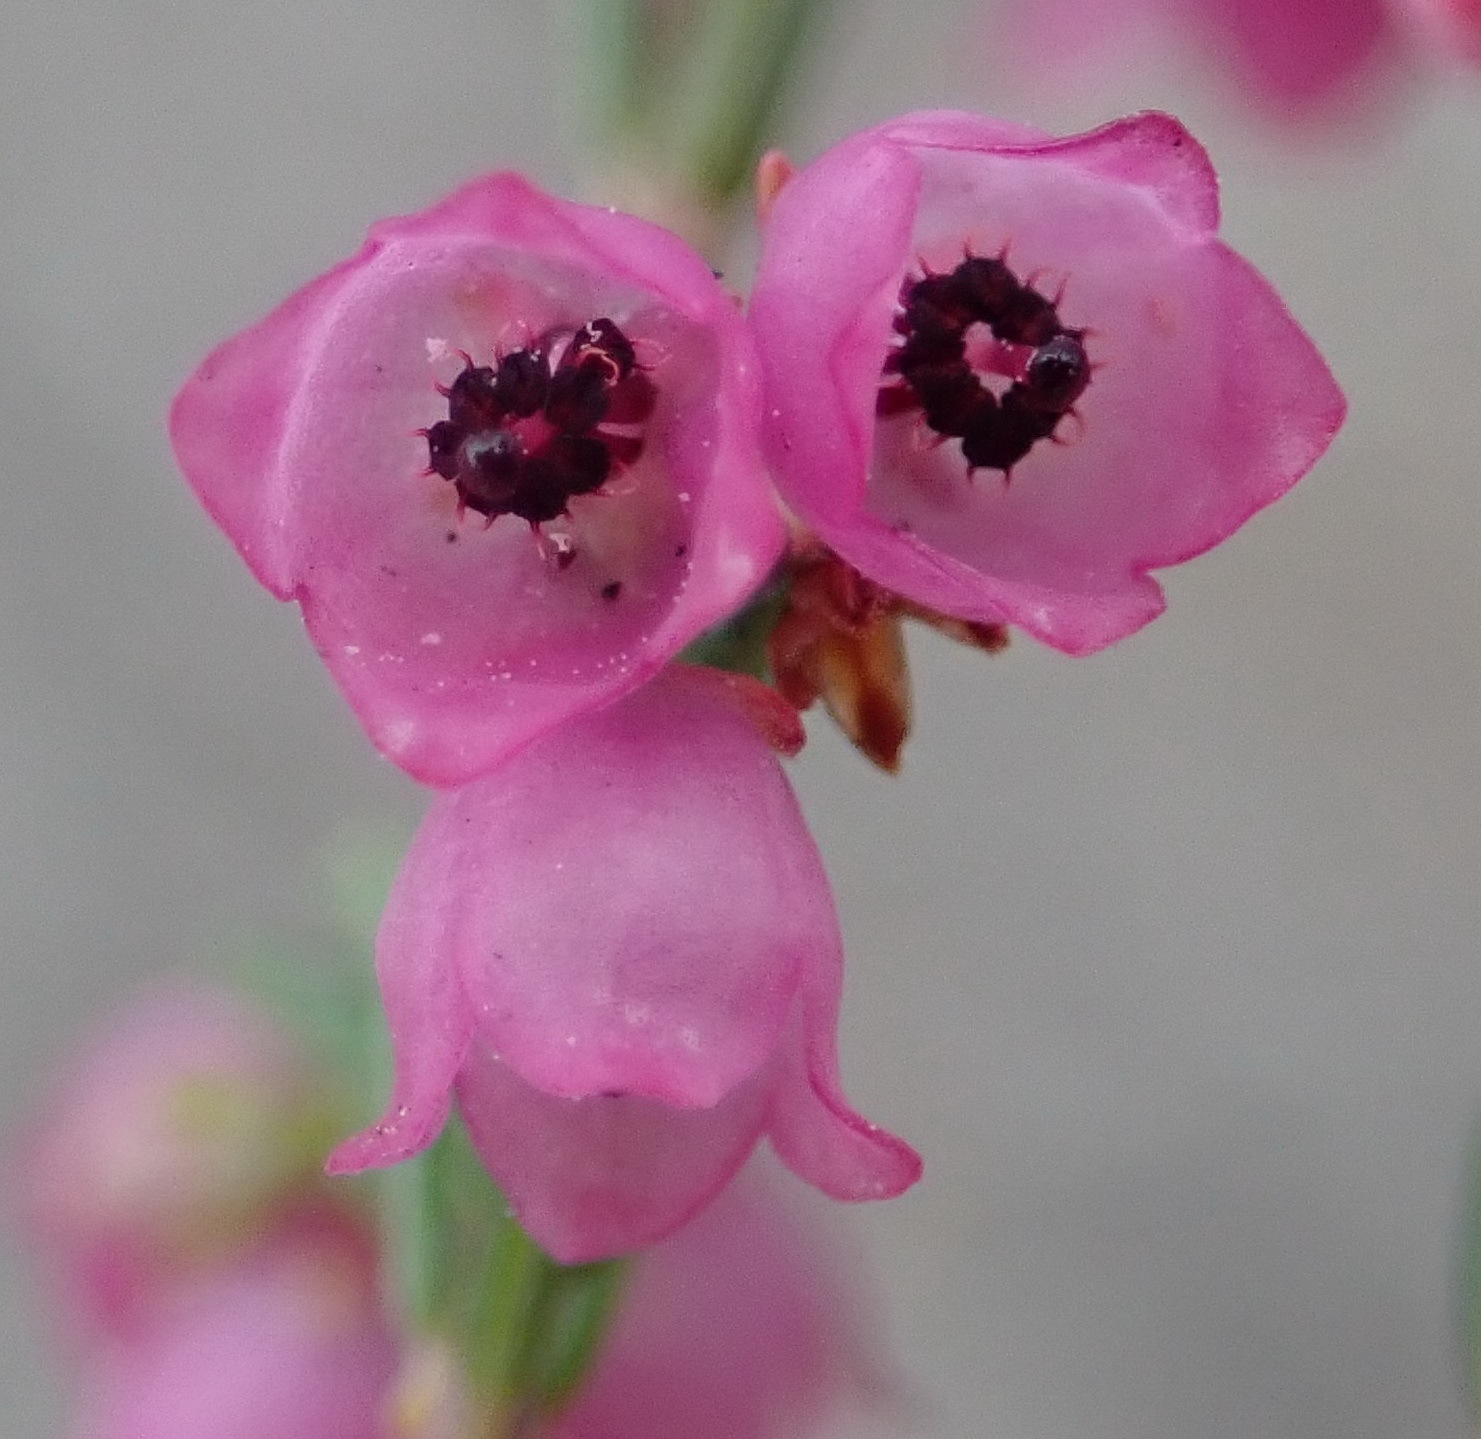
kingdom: Plantae
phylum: Tracheophyta
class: Magnoliopsida
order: Ericales
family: Ericaceae
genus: Erica
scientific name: Erica quadrangularis
